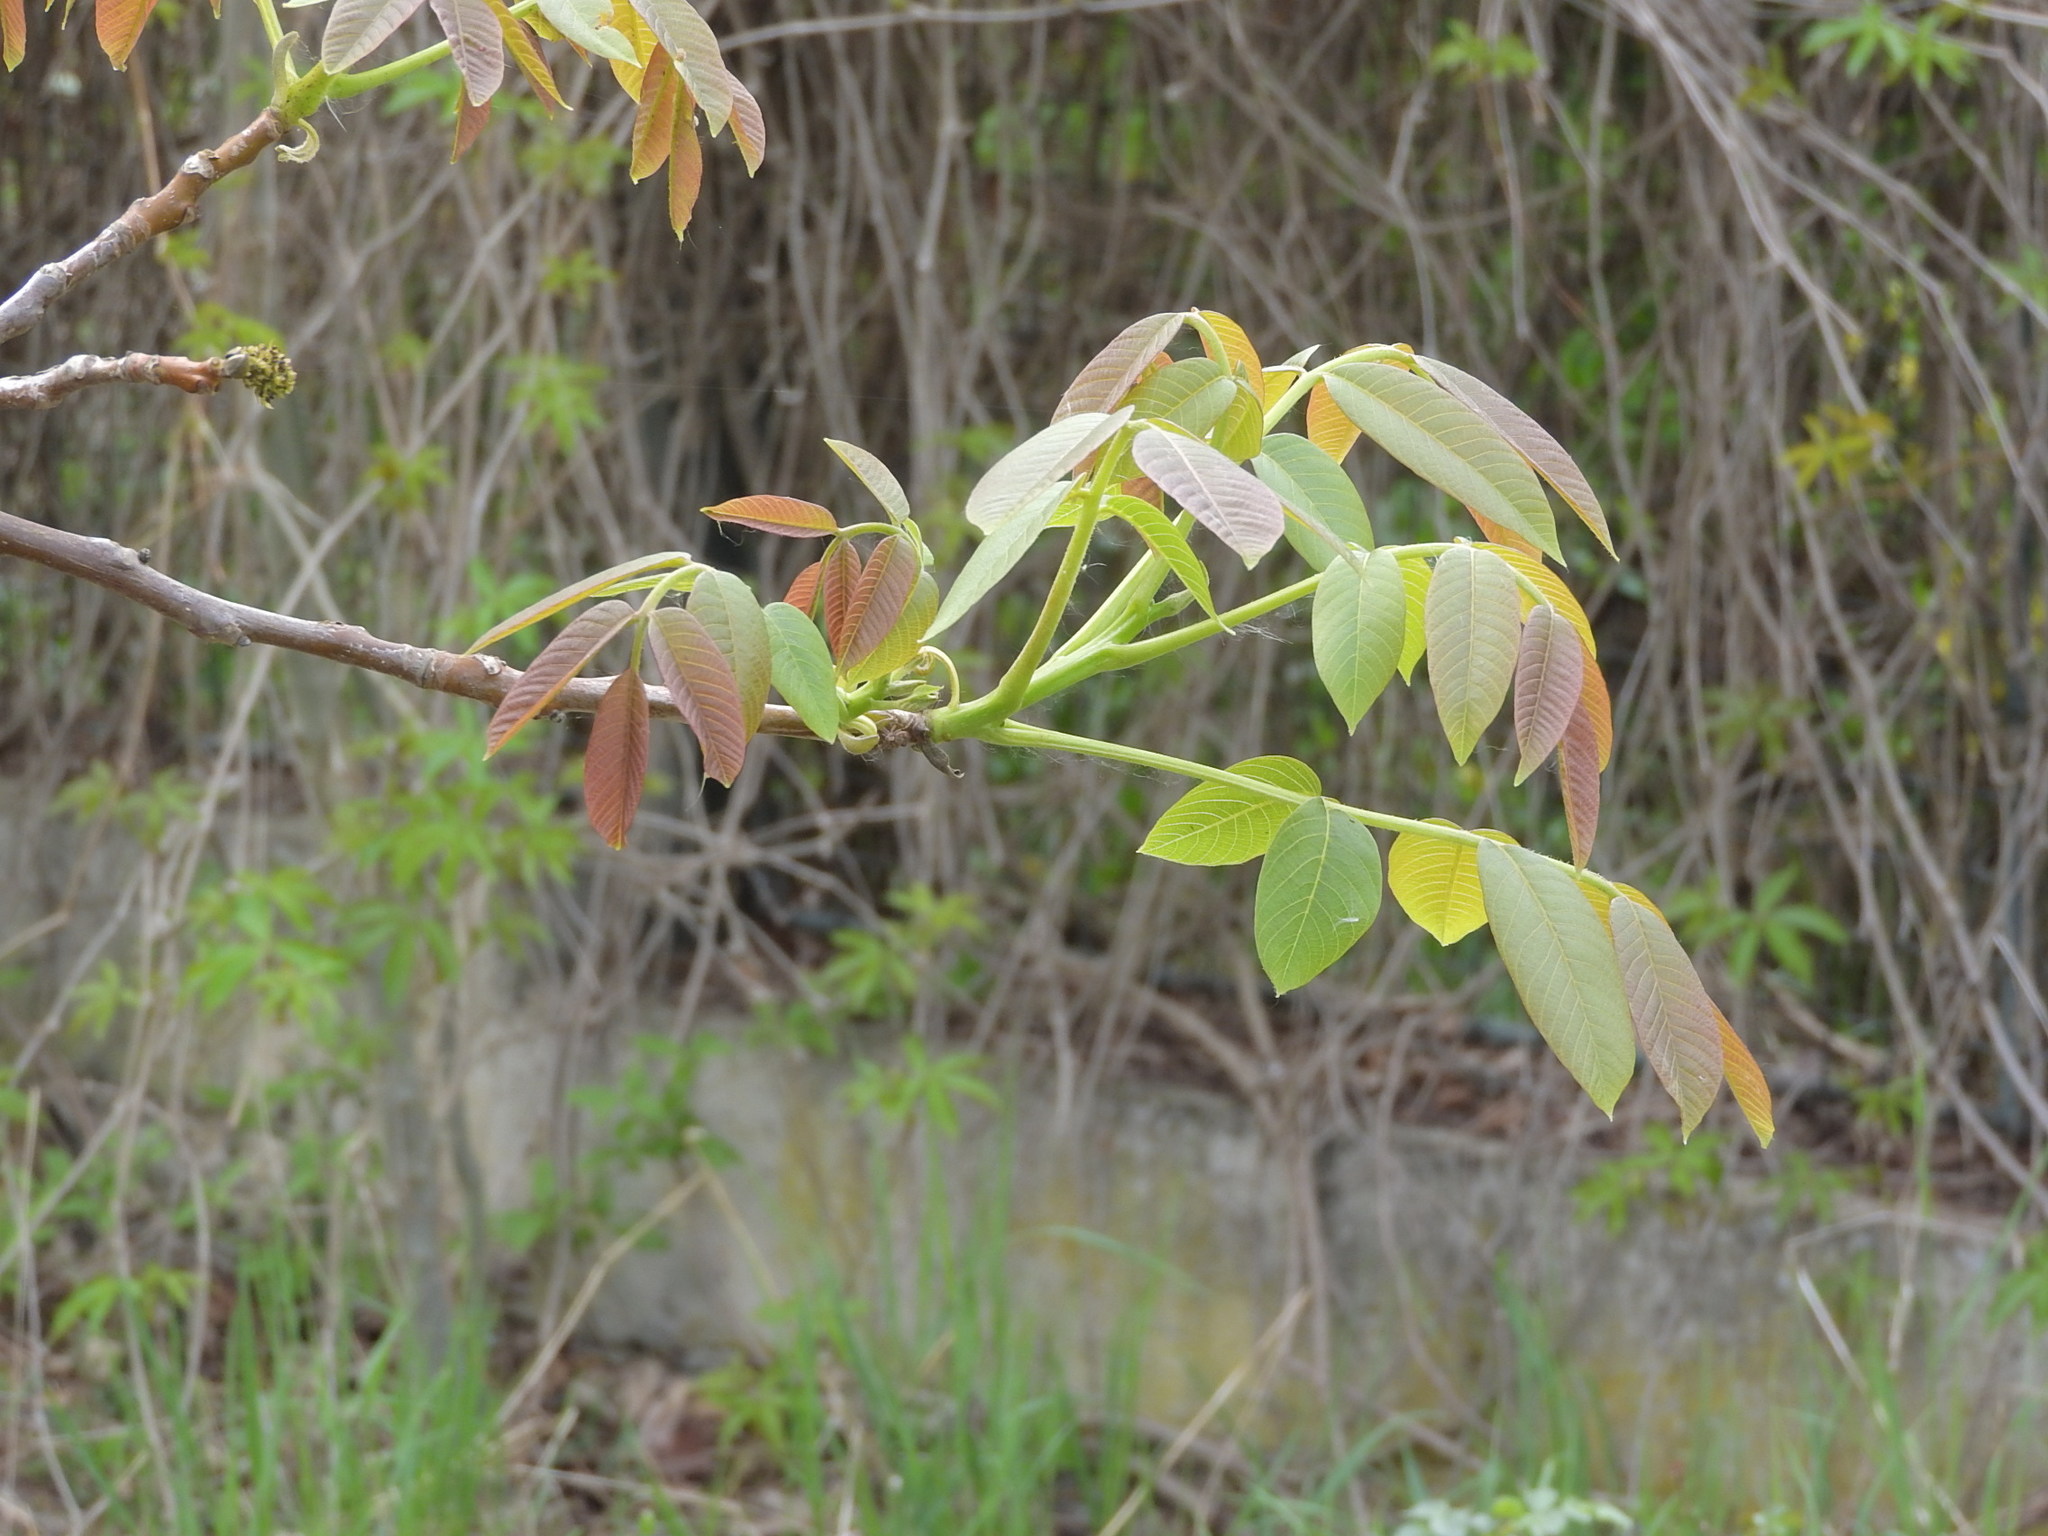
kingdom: Plantae
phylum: Tracheophyta
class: Magnoliopsida
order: Fagales
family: Juglandaceae
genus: Juglans
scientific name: Juglans regia
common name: Walnut
